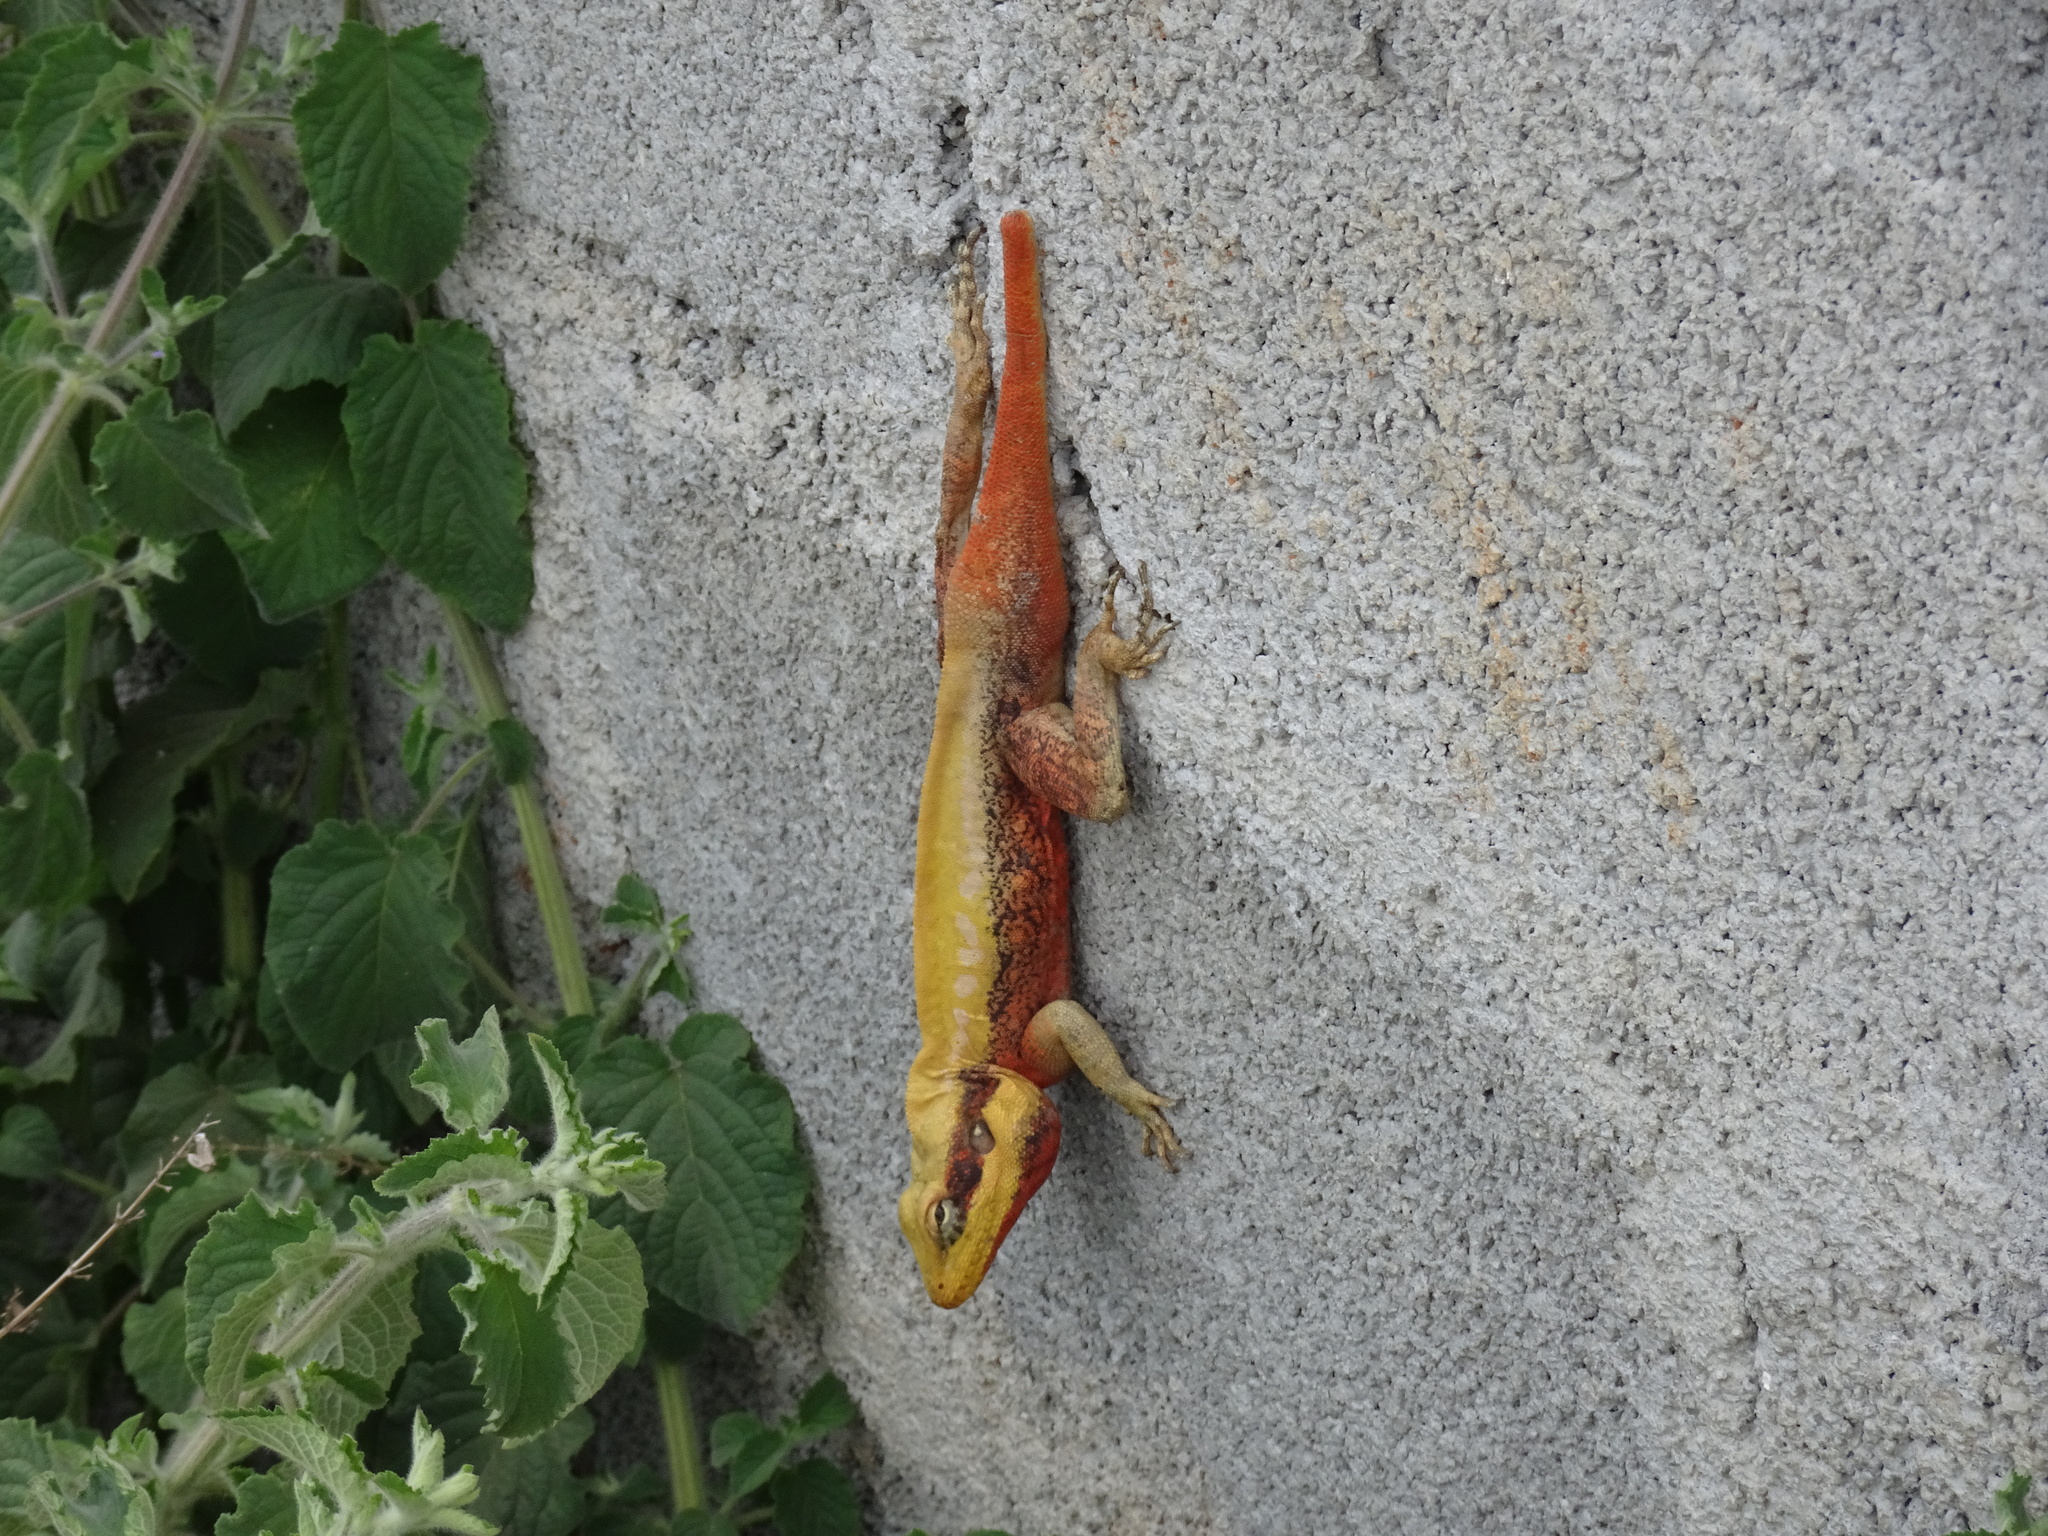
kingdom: Animalia
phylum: Chordata
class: Squamata
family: Agamidae
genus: Psammophilus
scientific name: Psammophilus dorsalis
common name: South indian rock agama
